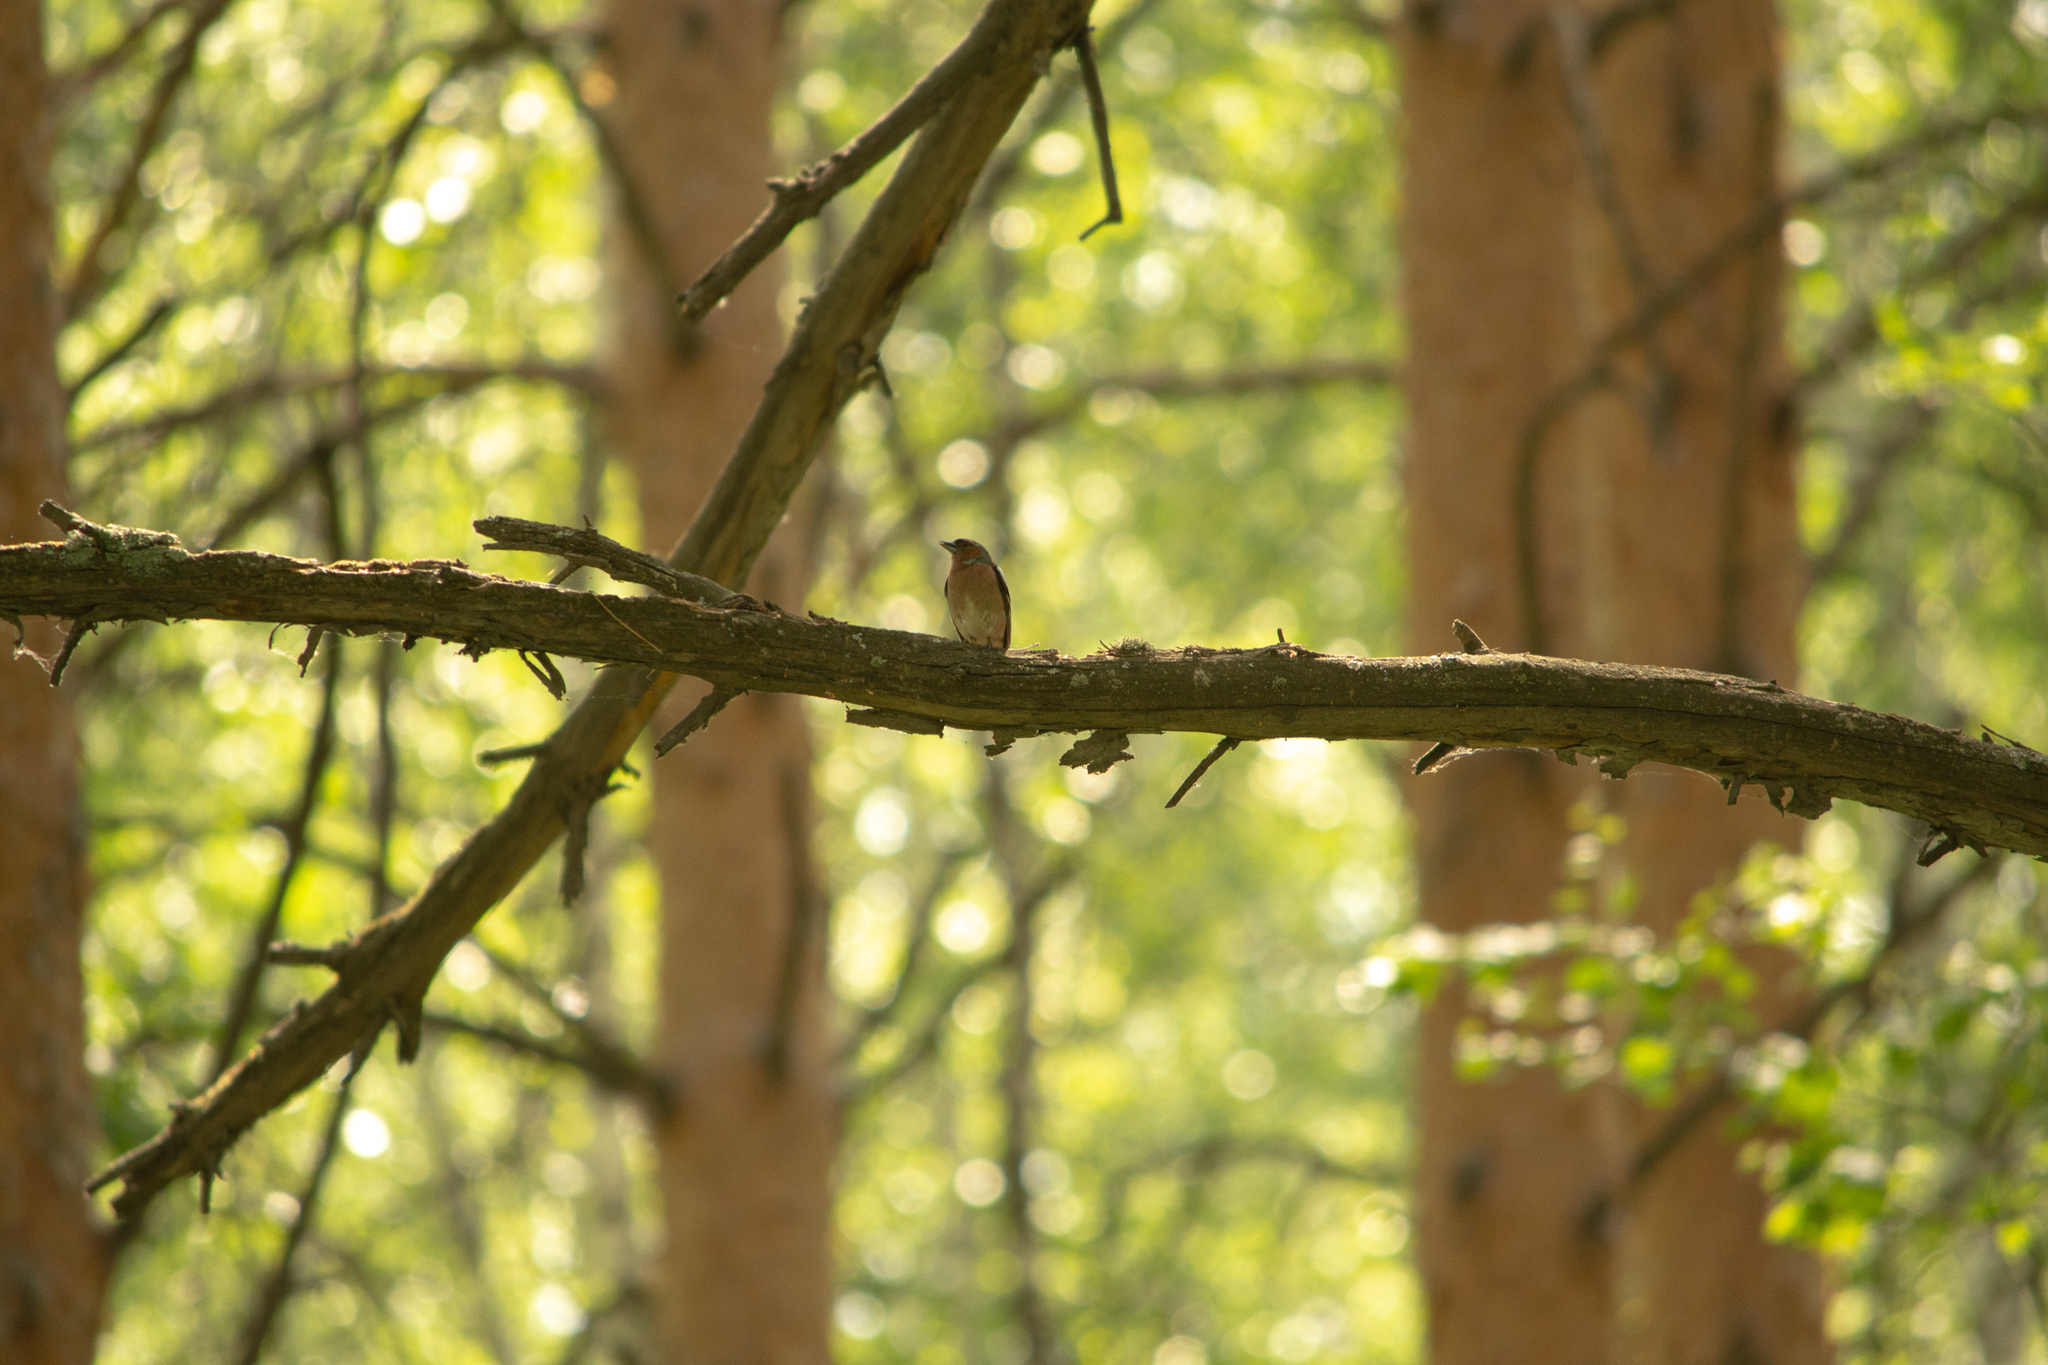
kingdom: Animalia
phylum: Chordata
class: Aves
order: Passeriformes
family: Fringillidae
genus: Fringilla
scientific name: Fringilla coelebs
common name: Common chaffinch
